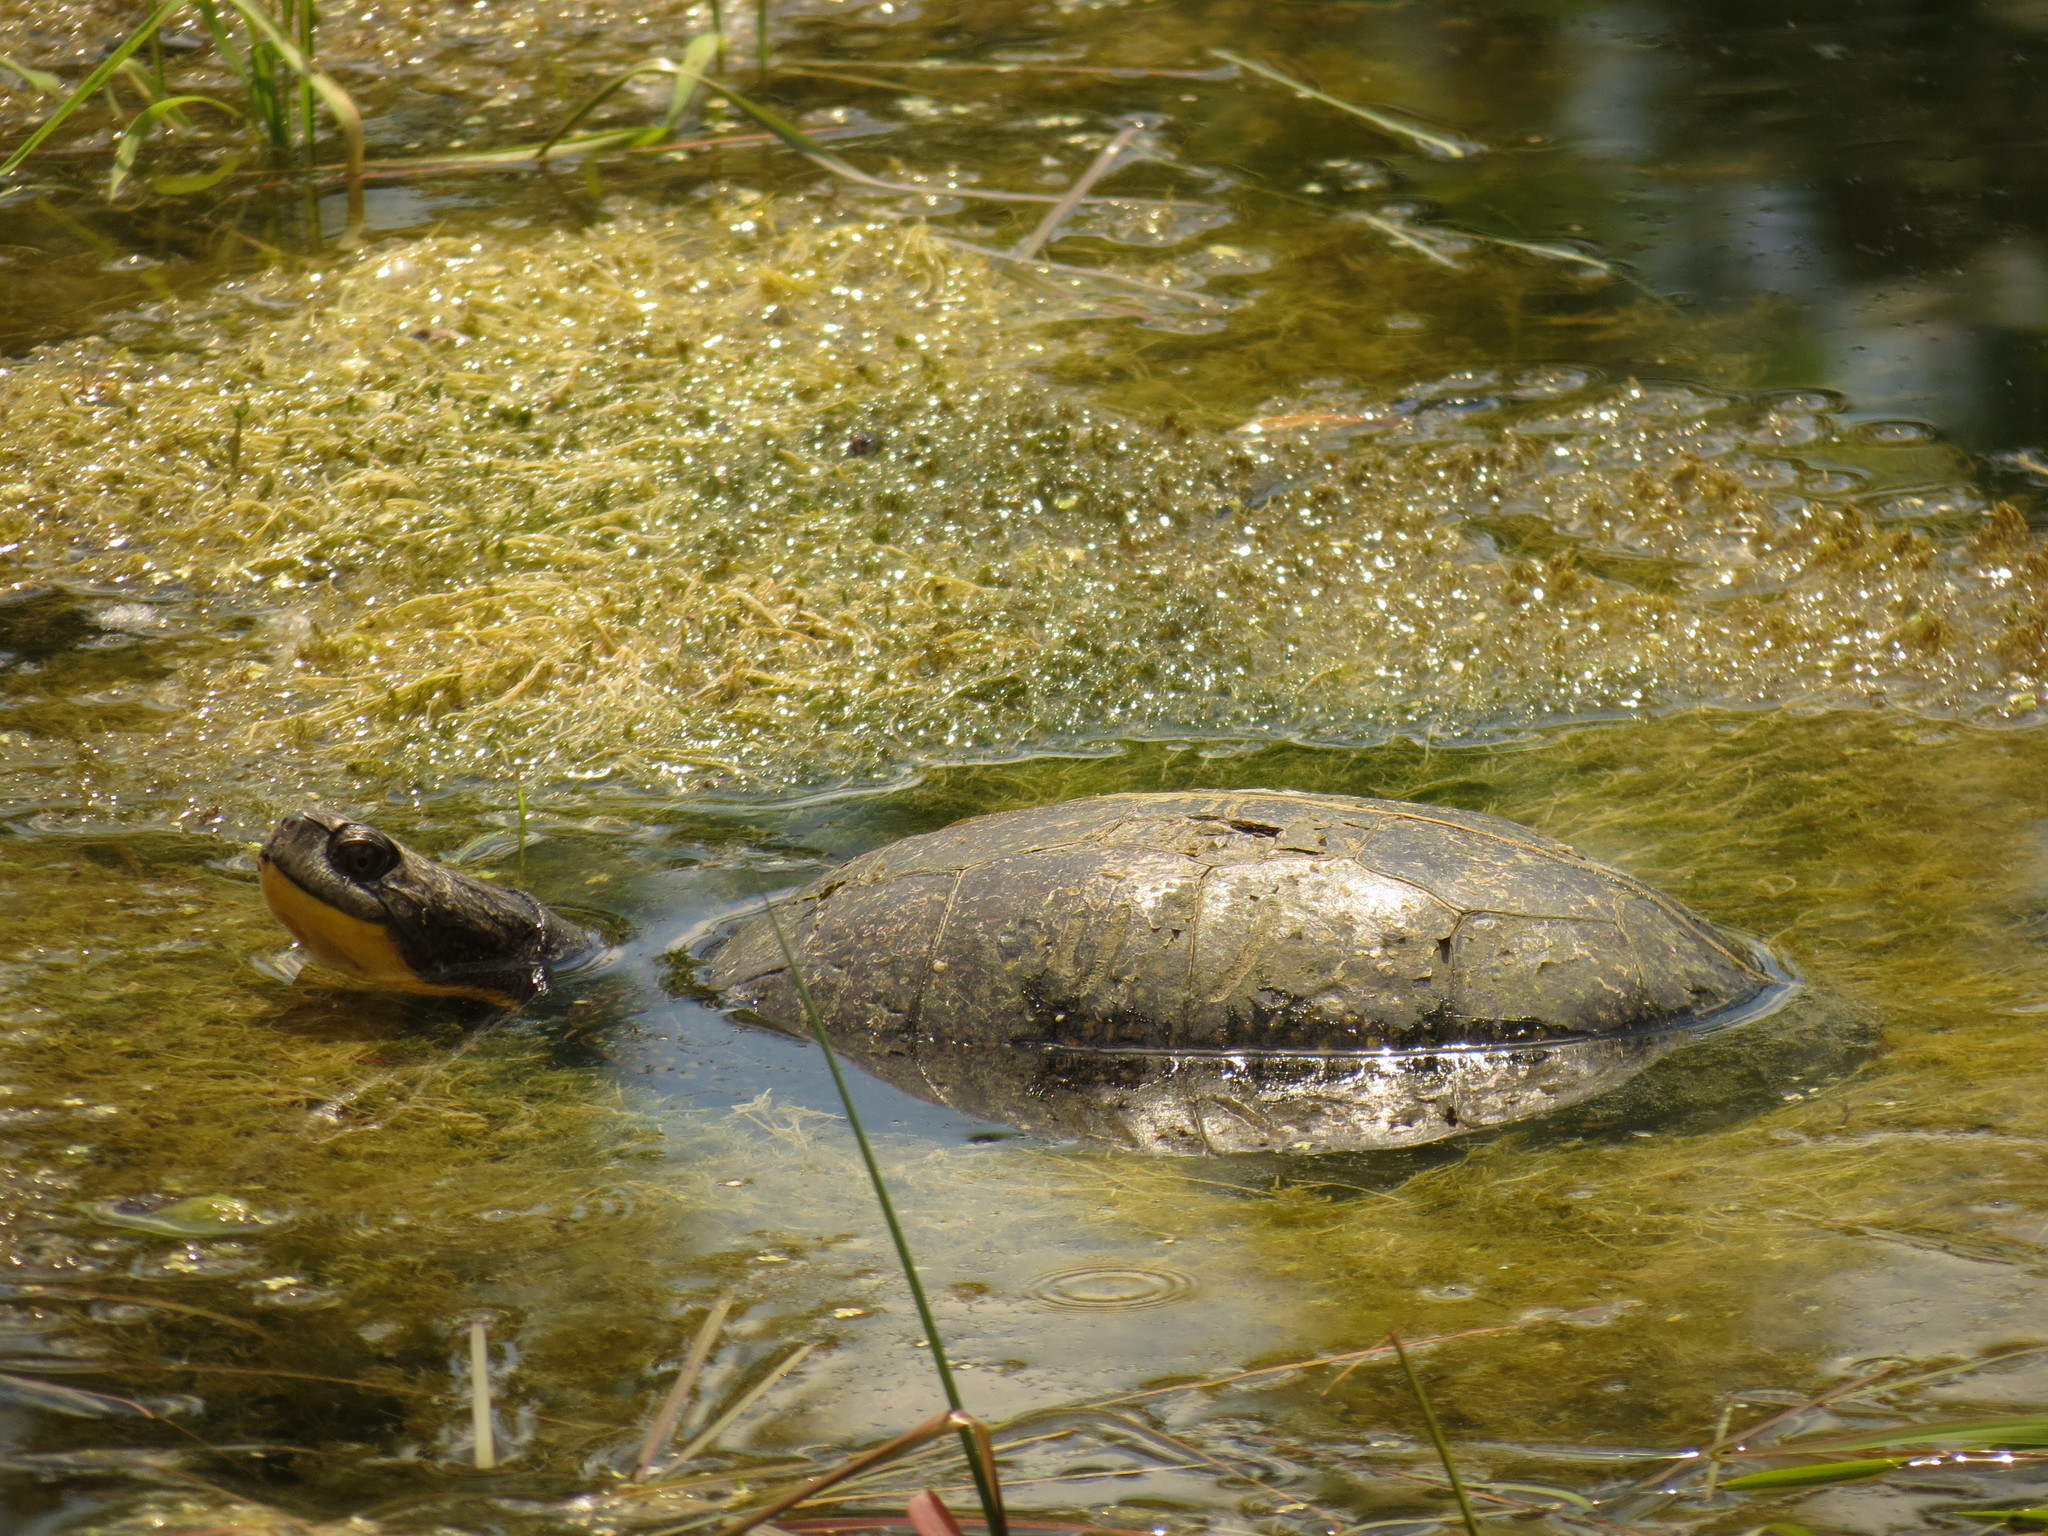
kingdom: Animalia
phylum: Chordata
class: Testudines
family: Emydidae
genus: Emys
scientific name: Emys blandingii
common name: Blanding's turtle
